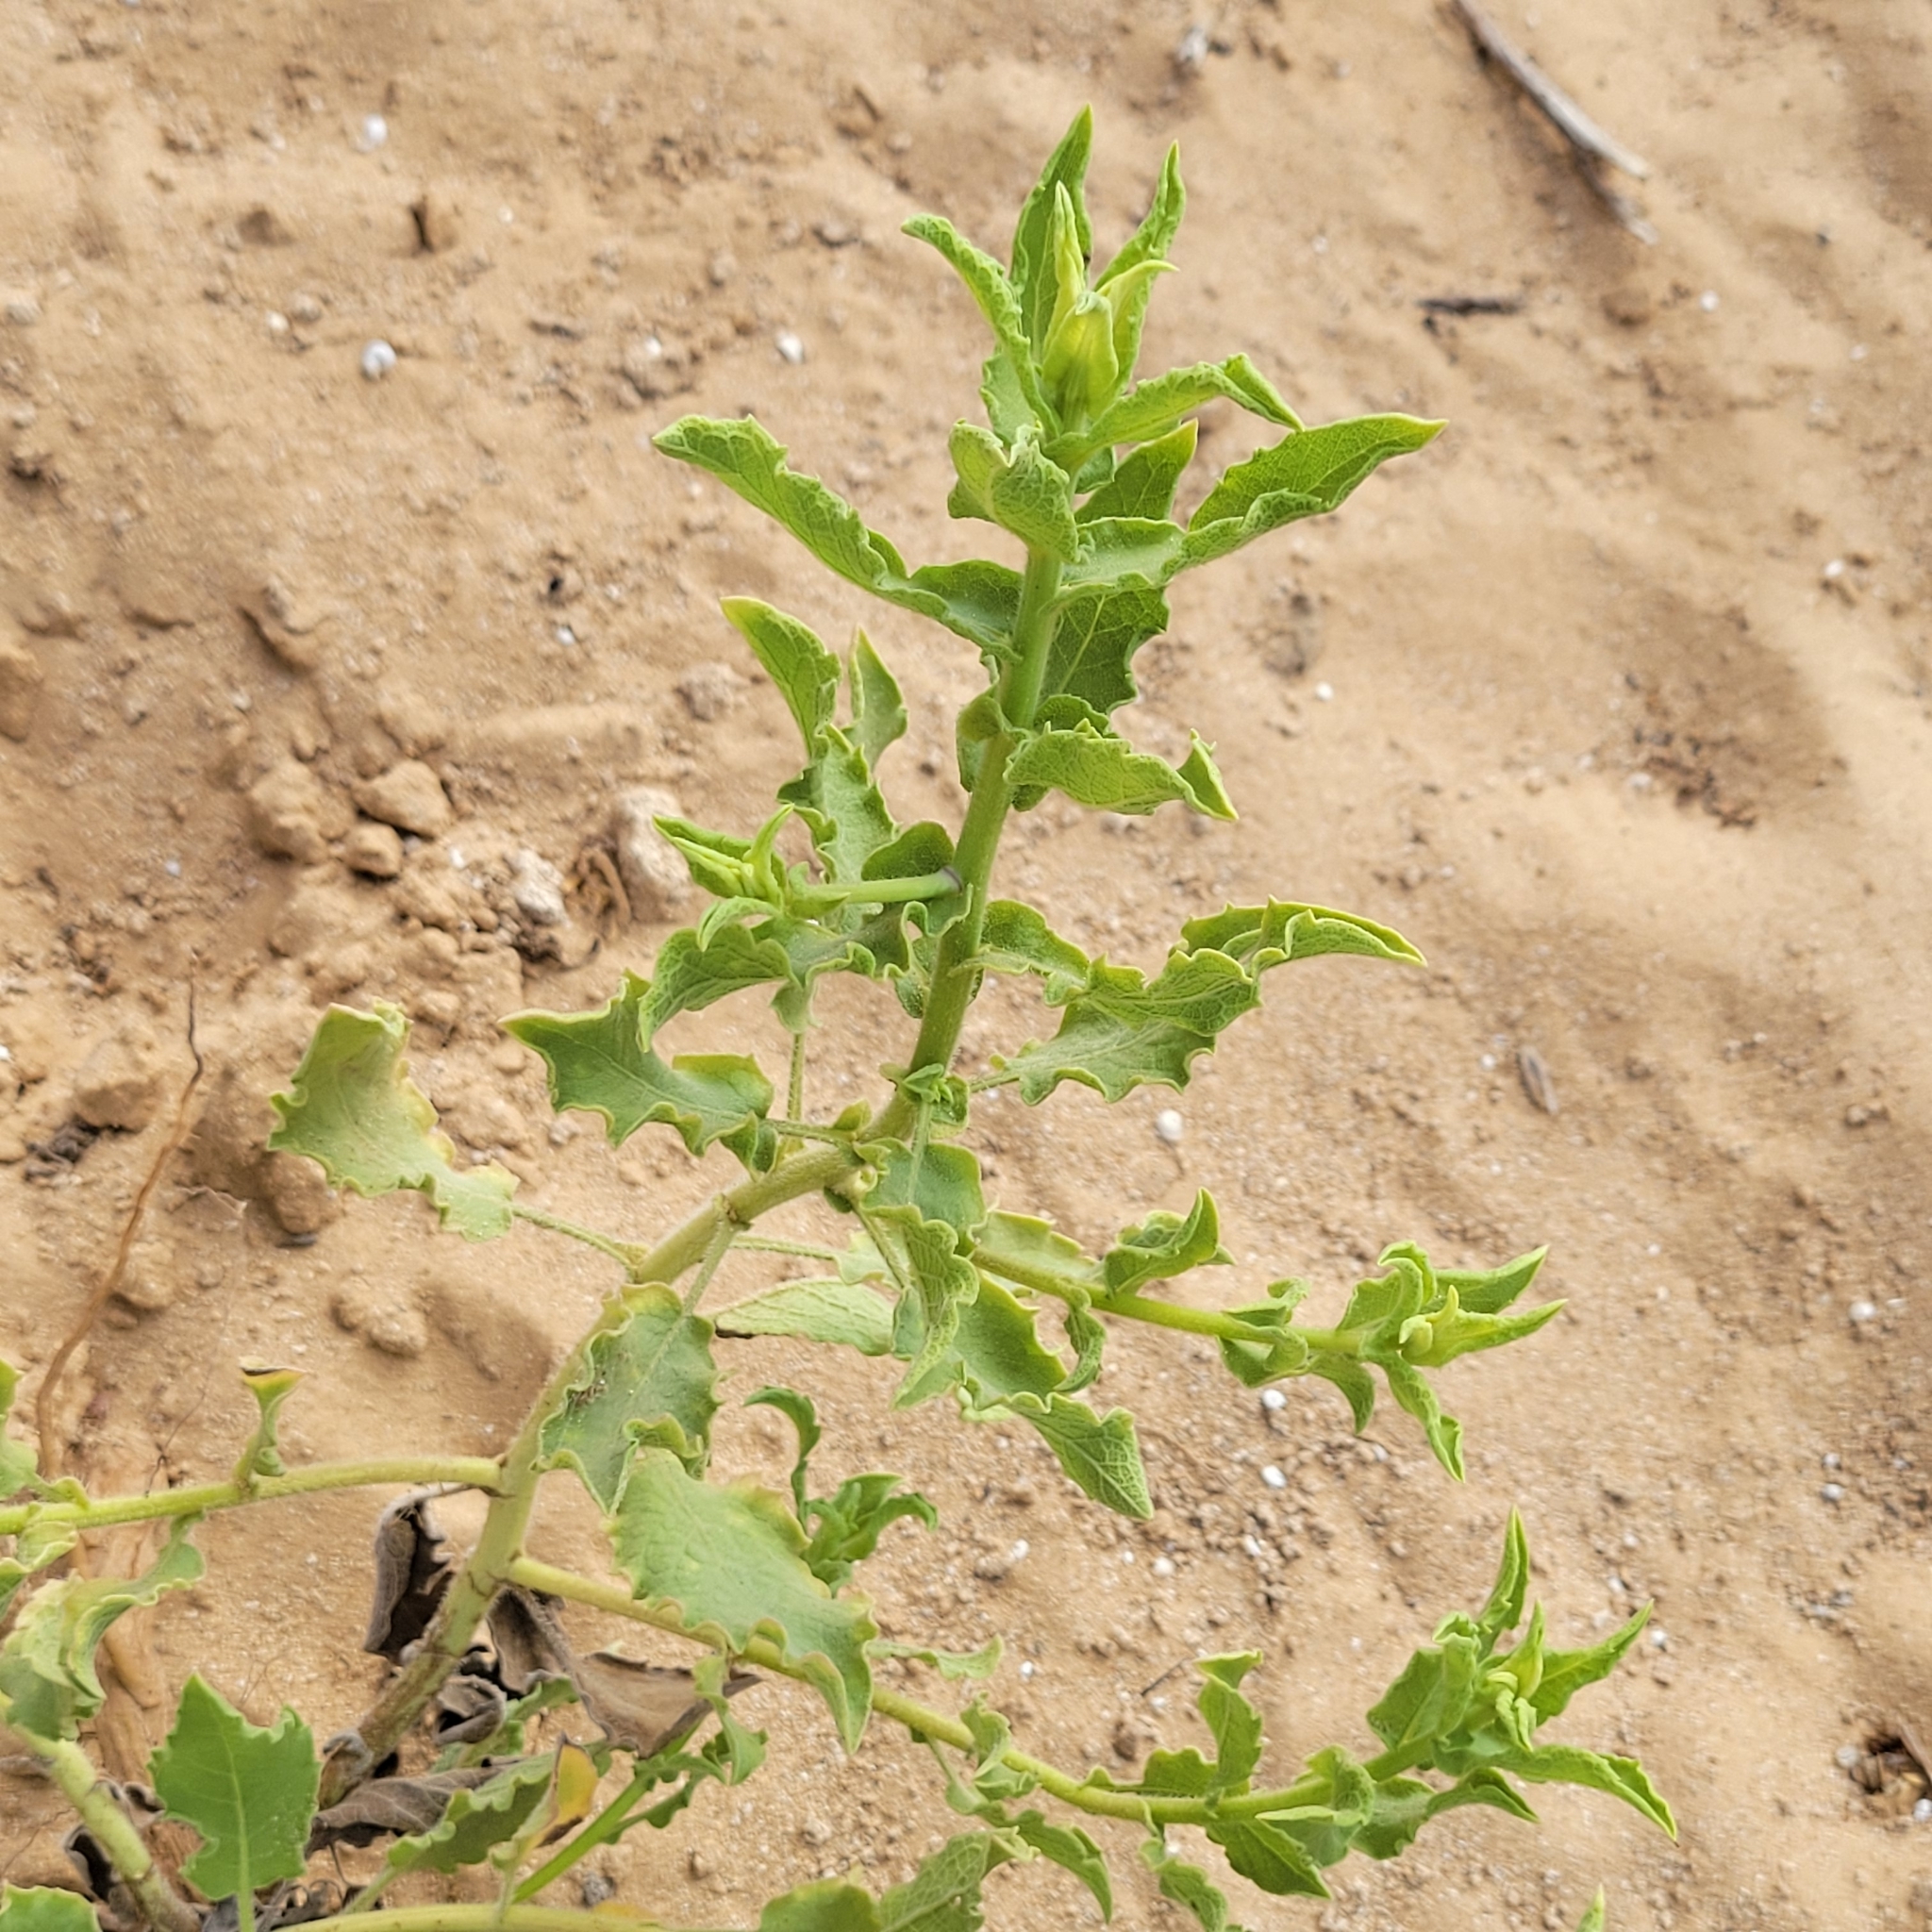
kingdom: Plantae
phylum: Tracheophyta
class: Magnoliopsida
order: Asterales
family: Asteraceae
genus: Heterotheca
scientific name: Heterotheca subaxillaris
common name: Camphorweed
